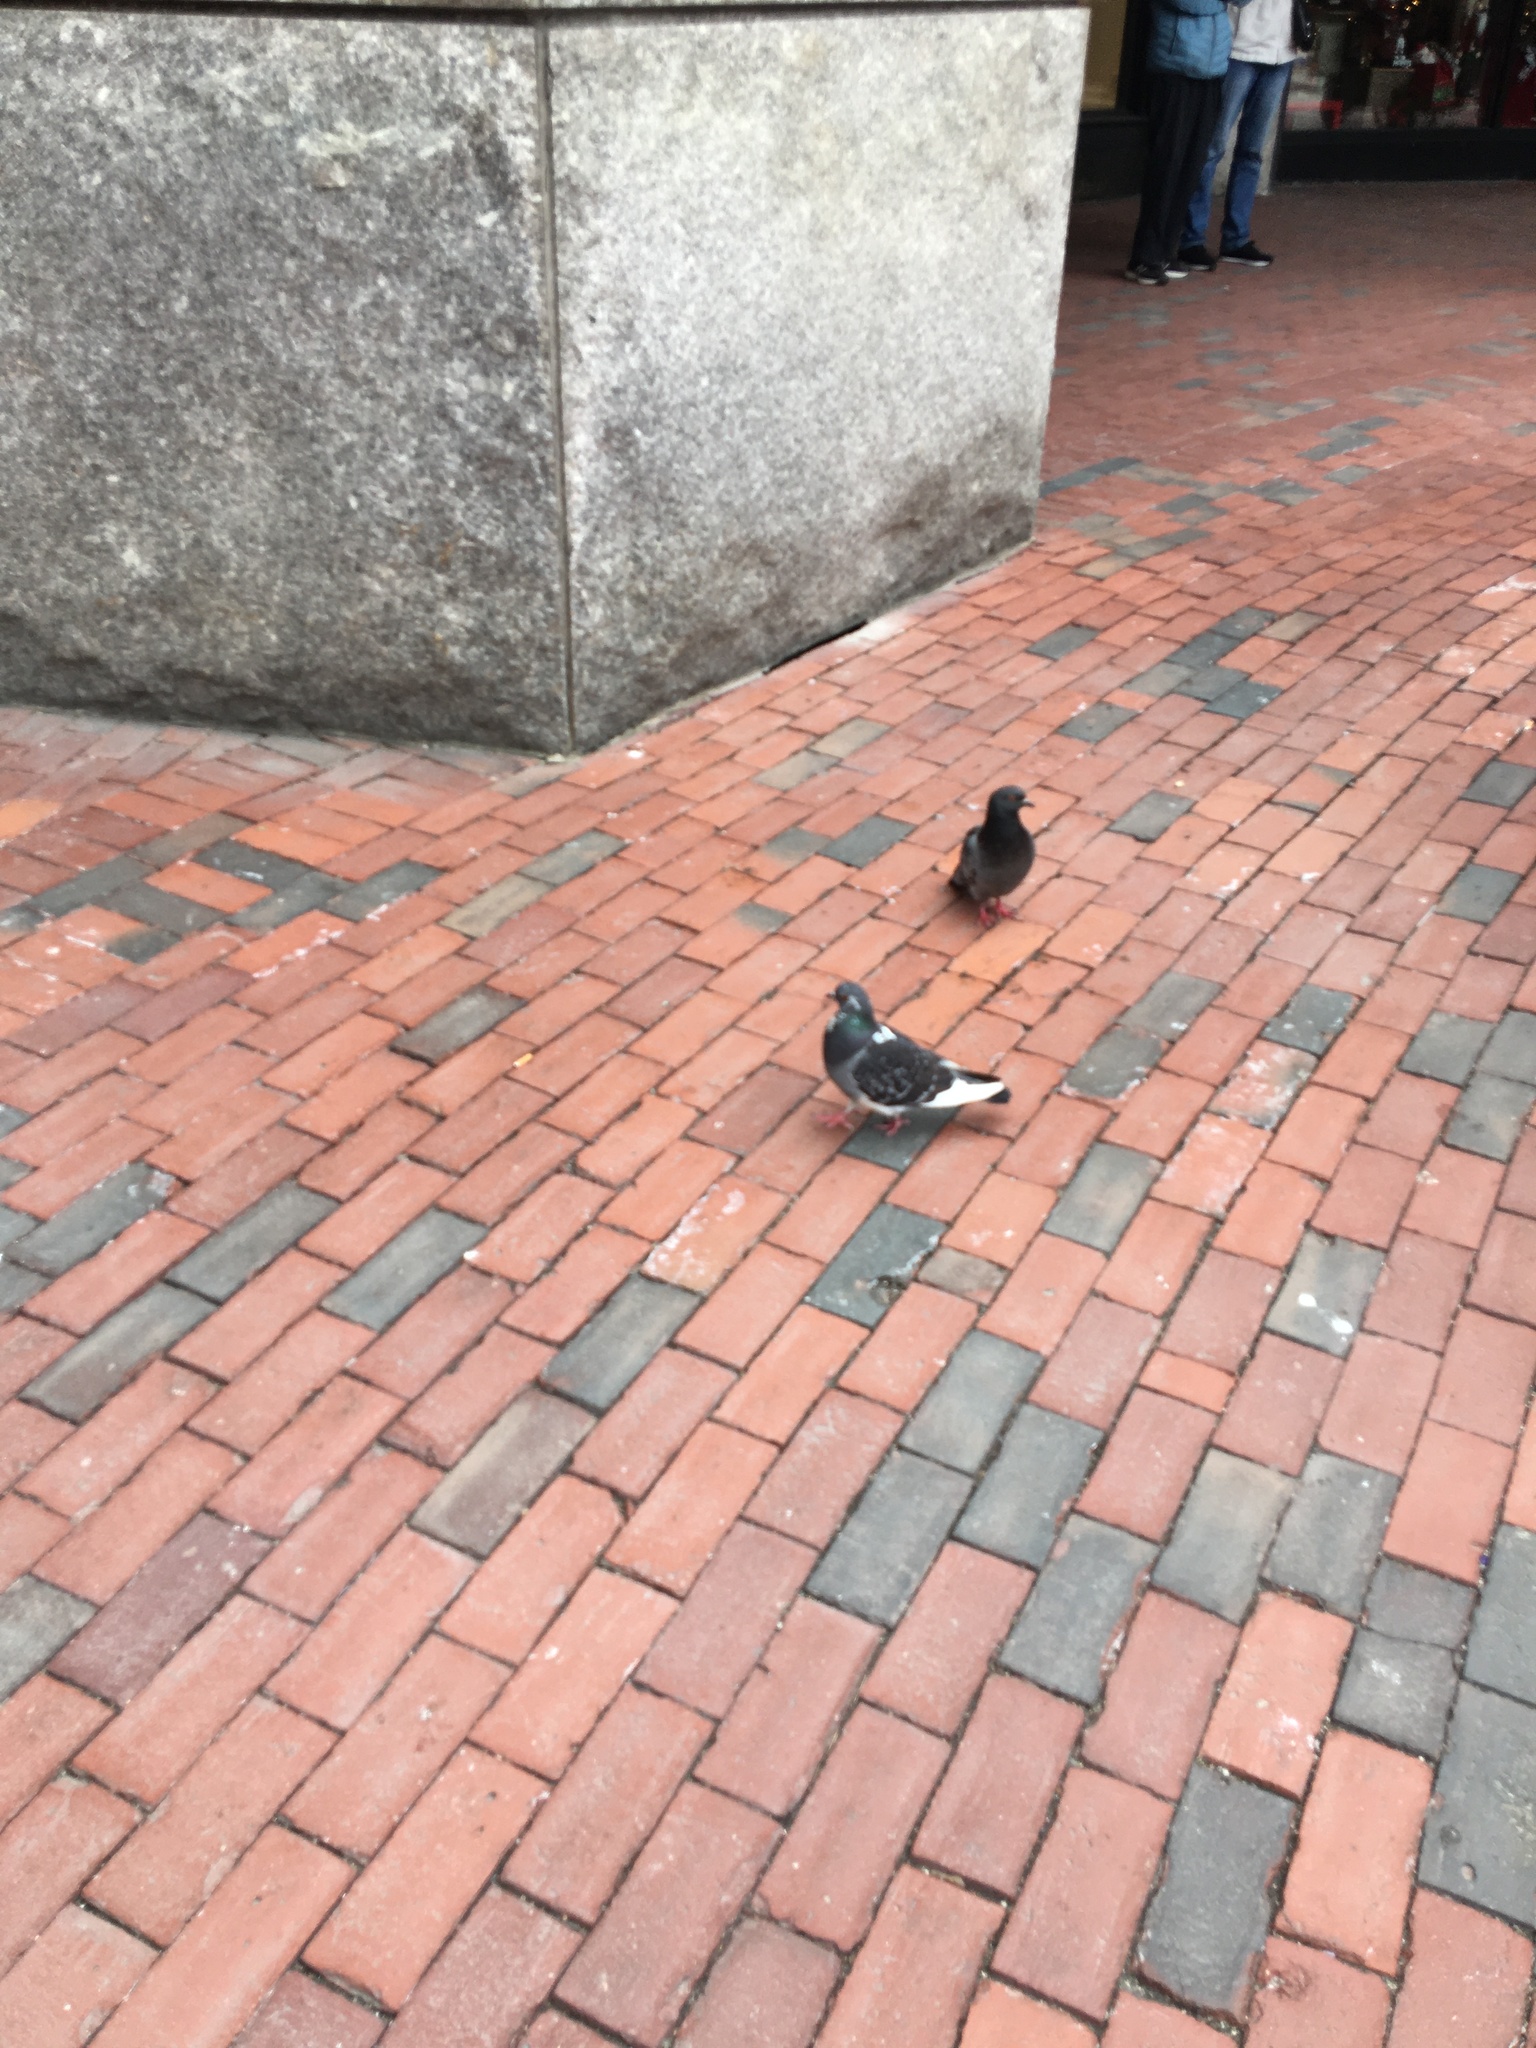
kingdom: Animalia
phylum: Chordata
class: Aves
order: Columbiformes
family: Columbidae
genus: Columba
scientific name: Columba livia
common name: Rock pigeon
